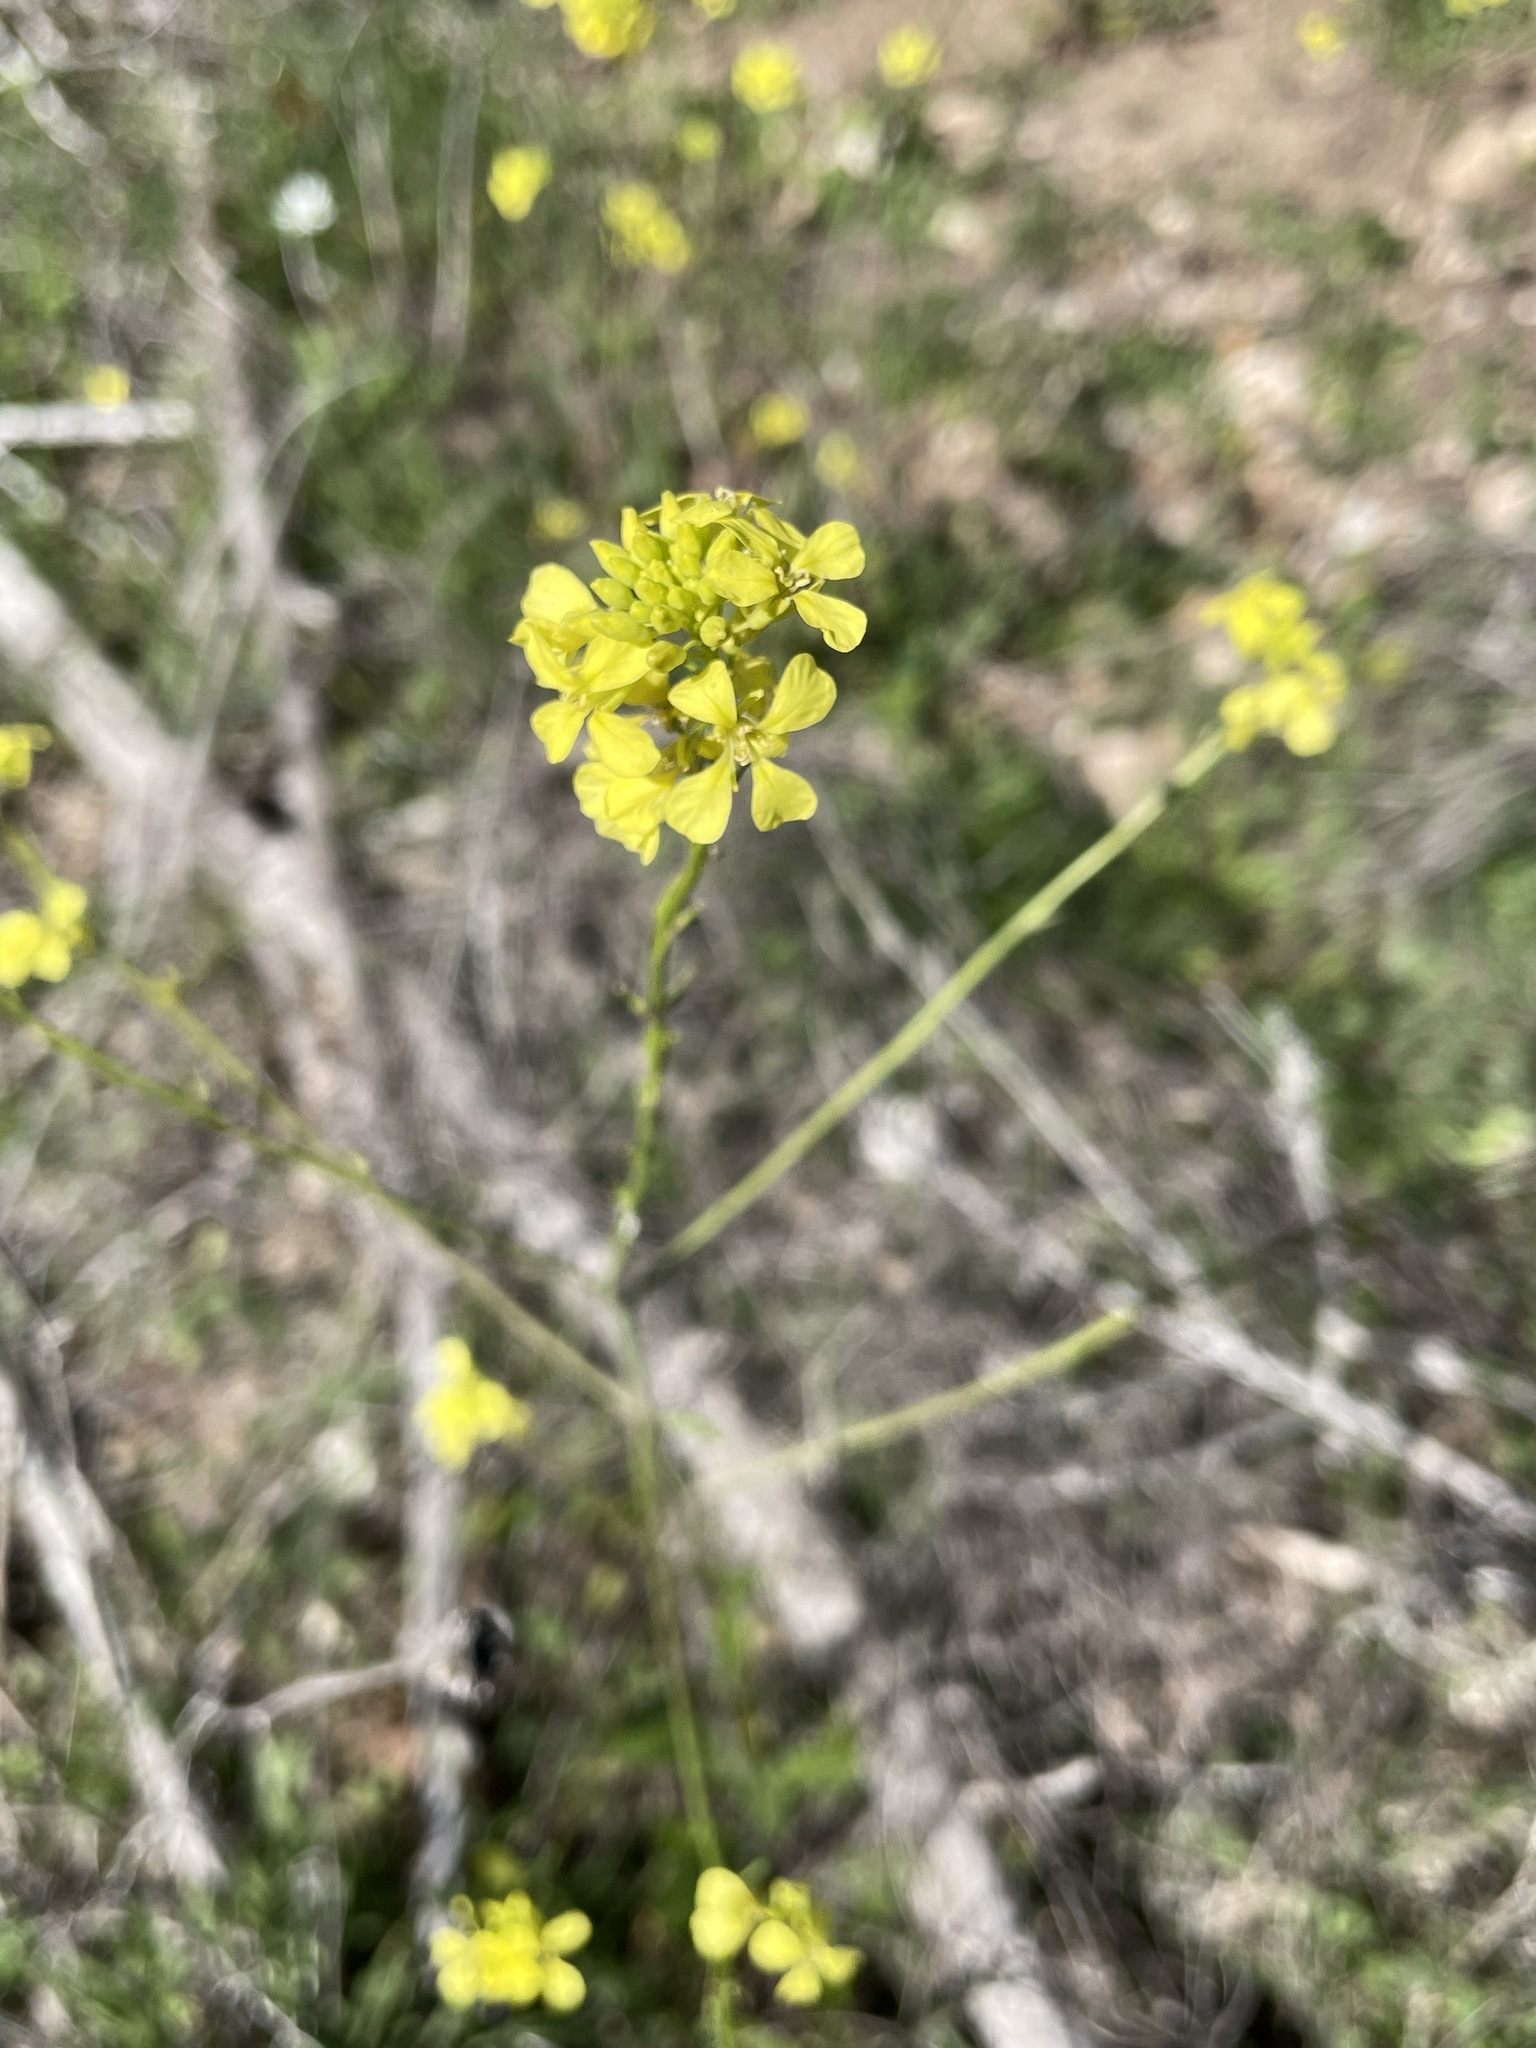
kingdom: Plantae
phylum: Tracheophyta
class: Magnoliopsida
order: Brassicales
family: Brassicaceae
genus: Rapistrum
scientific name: Rapistrum rugosum
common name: Annual bastardcabbage
